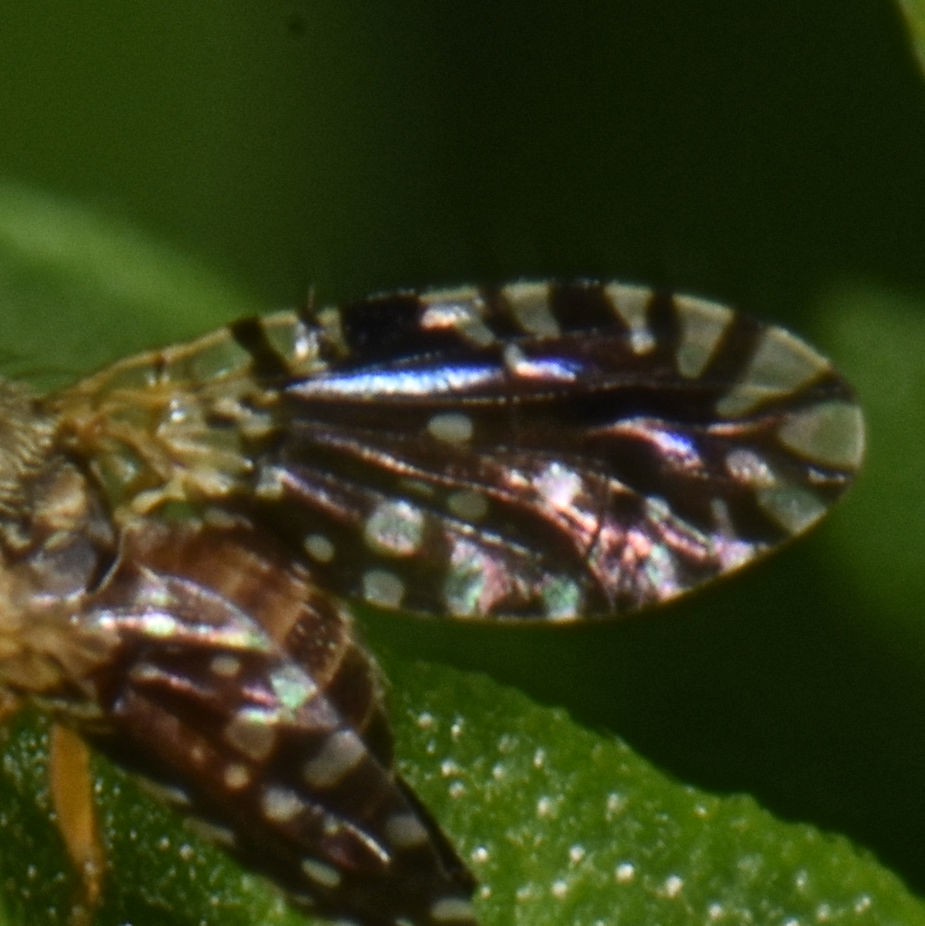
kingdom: Animalia
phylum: Arthropoda
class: Insecta
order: Diptera
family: Tephritidae
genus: Euaresta
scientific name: Euaresta bella
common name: Common ragweed fruit fly
